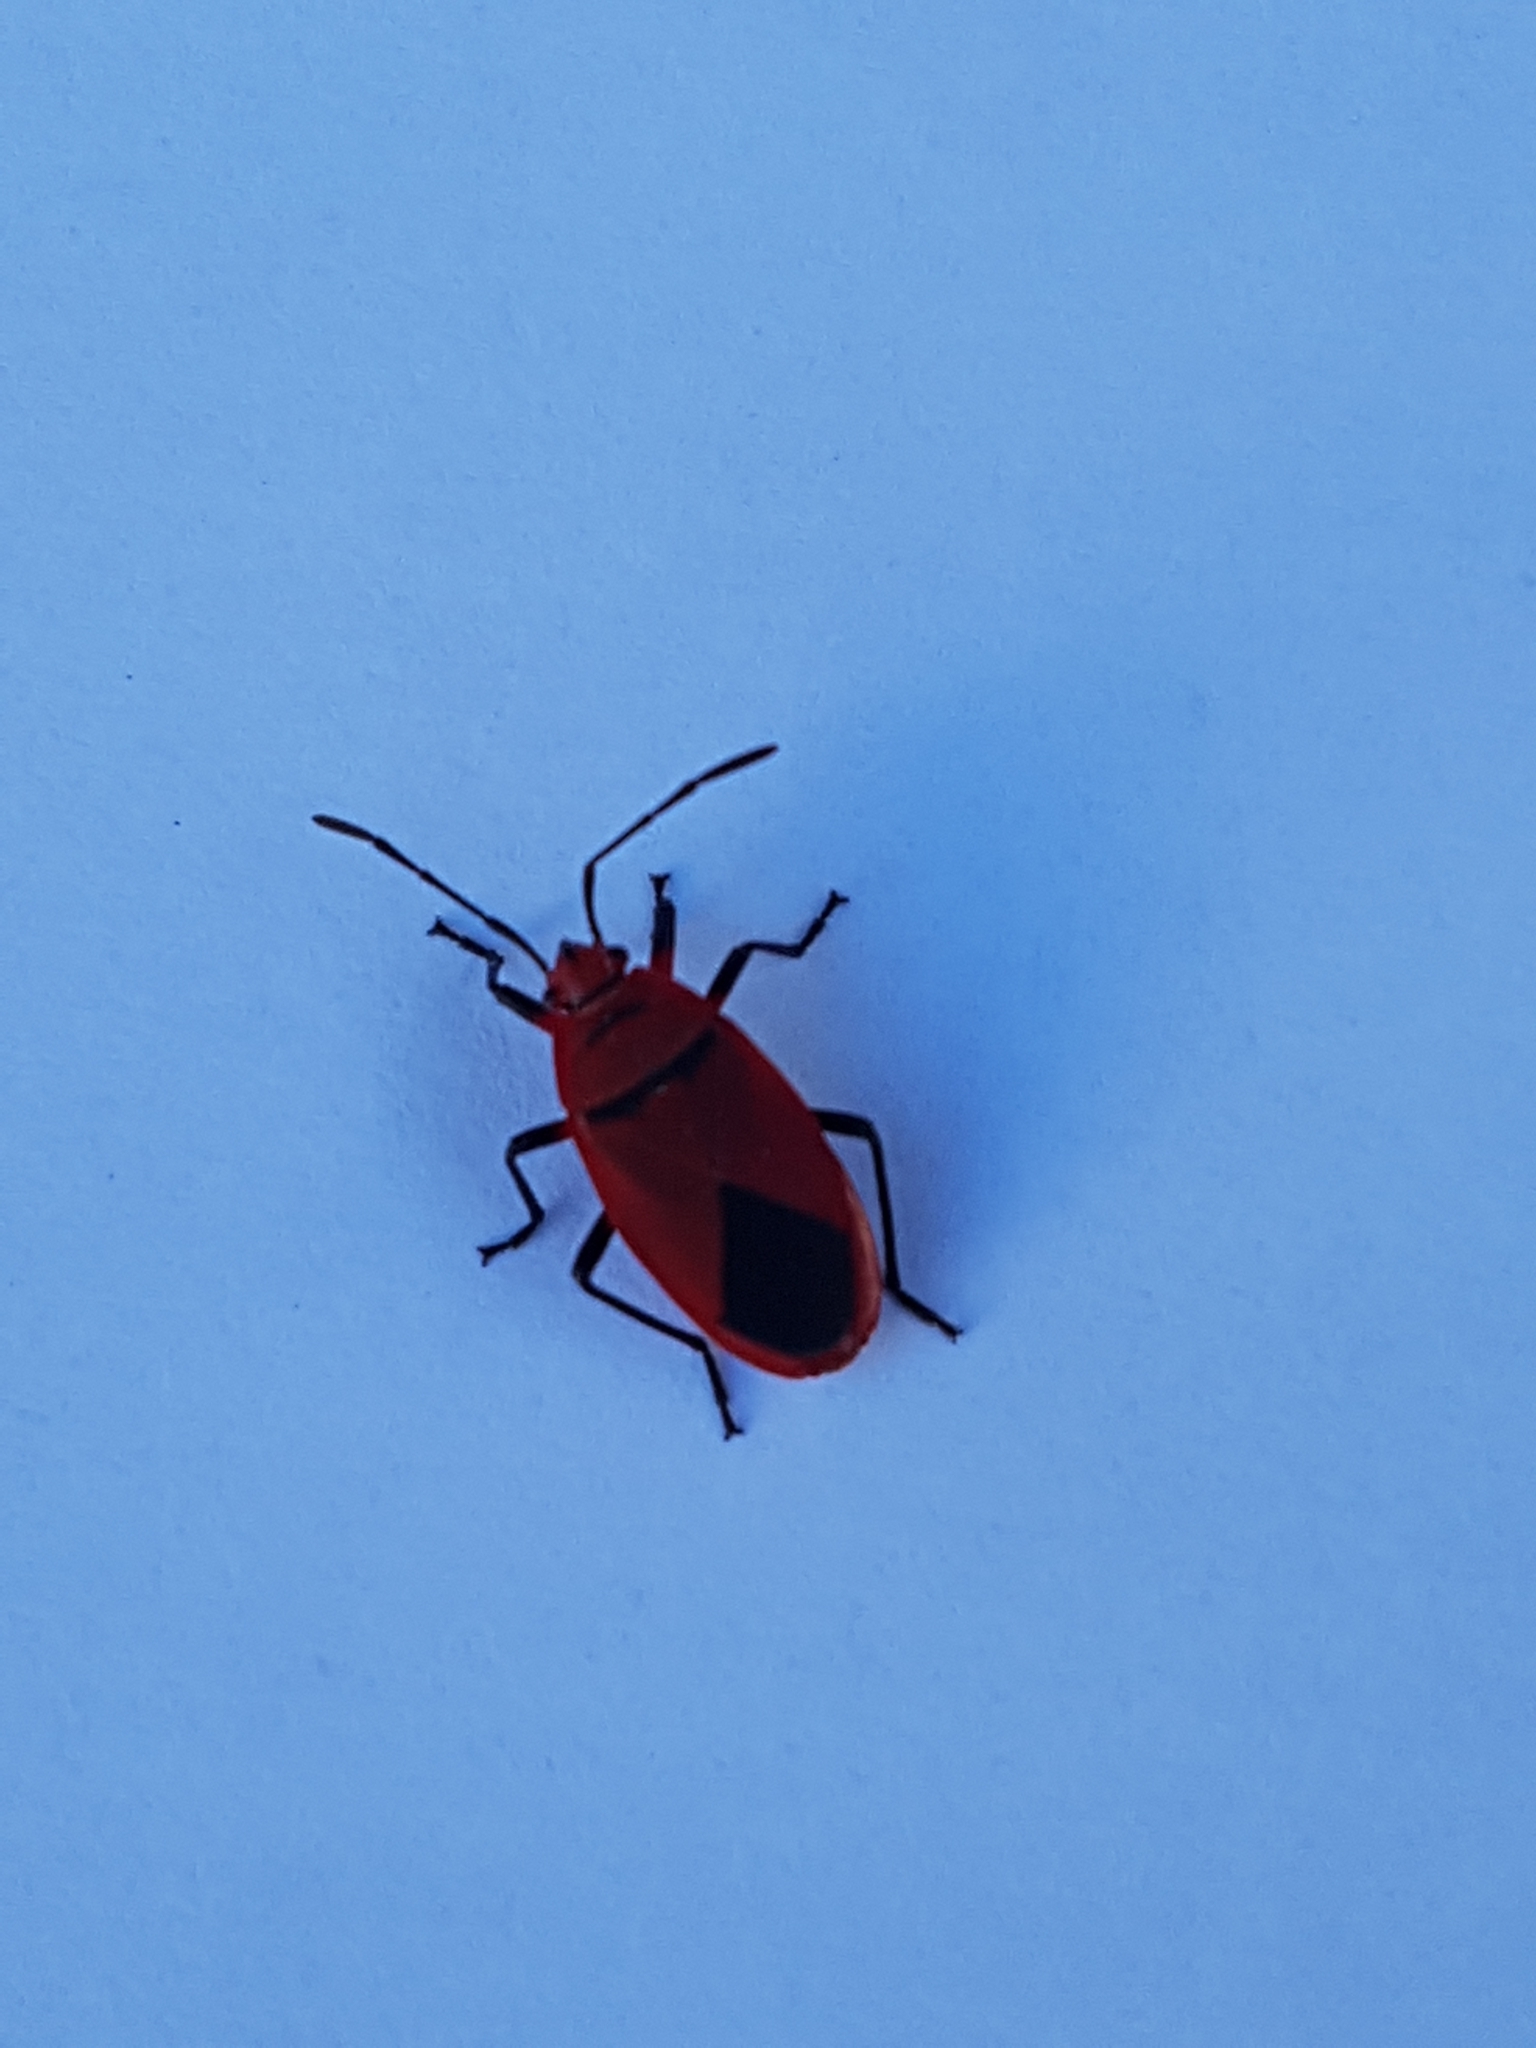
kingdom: Animalia
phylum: Arthropoda
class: Insecta
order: Hemiptera
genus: Cenaeus
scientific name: Cenaeus
